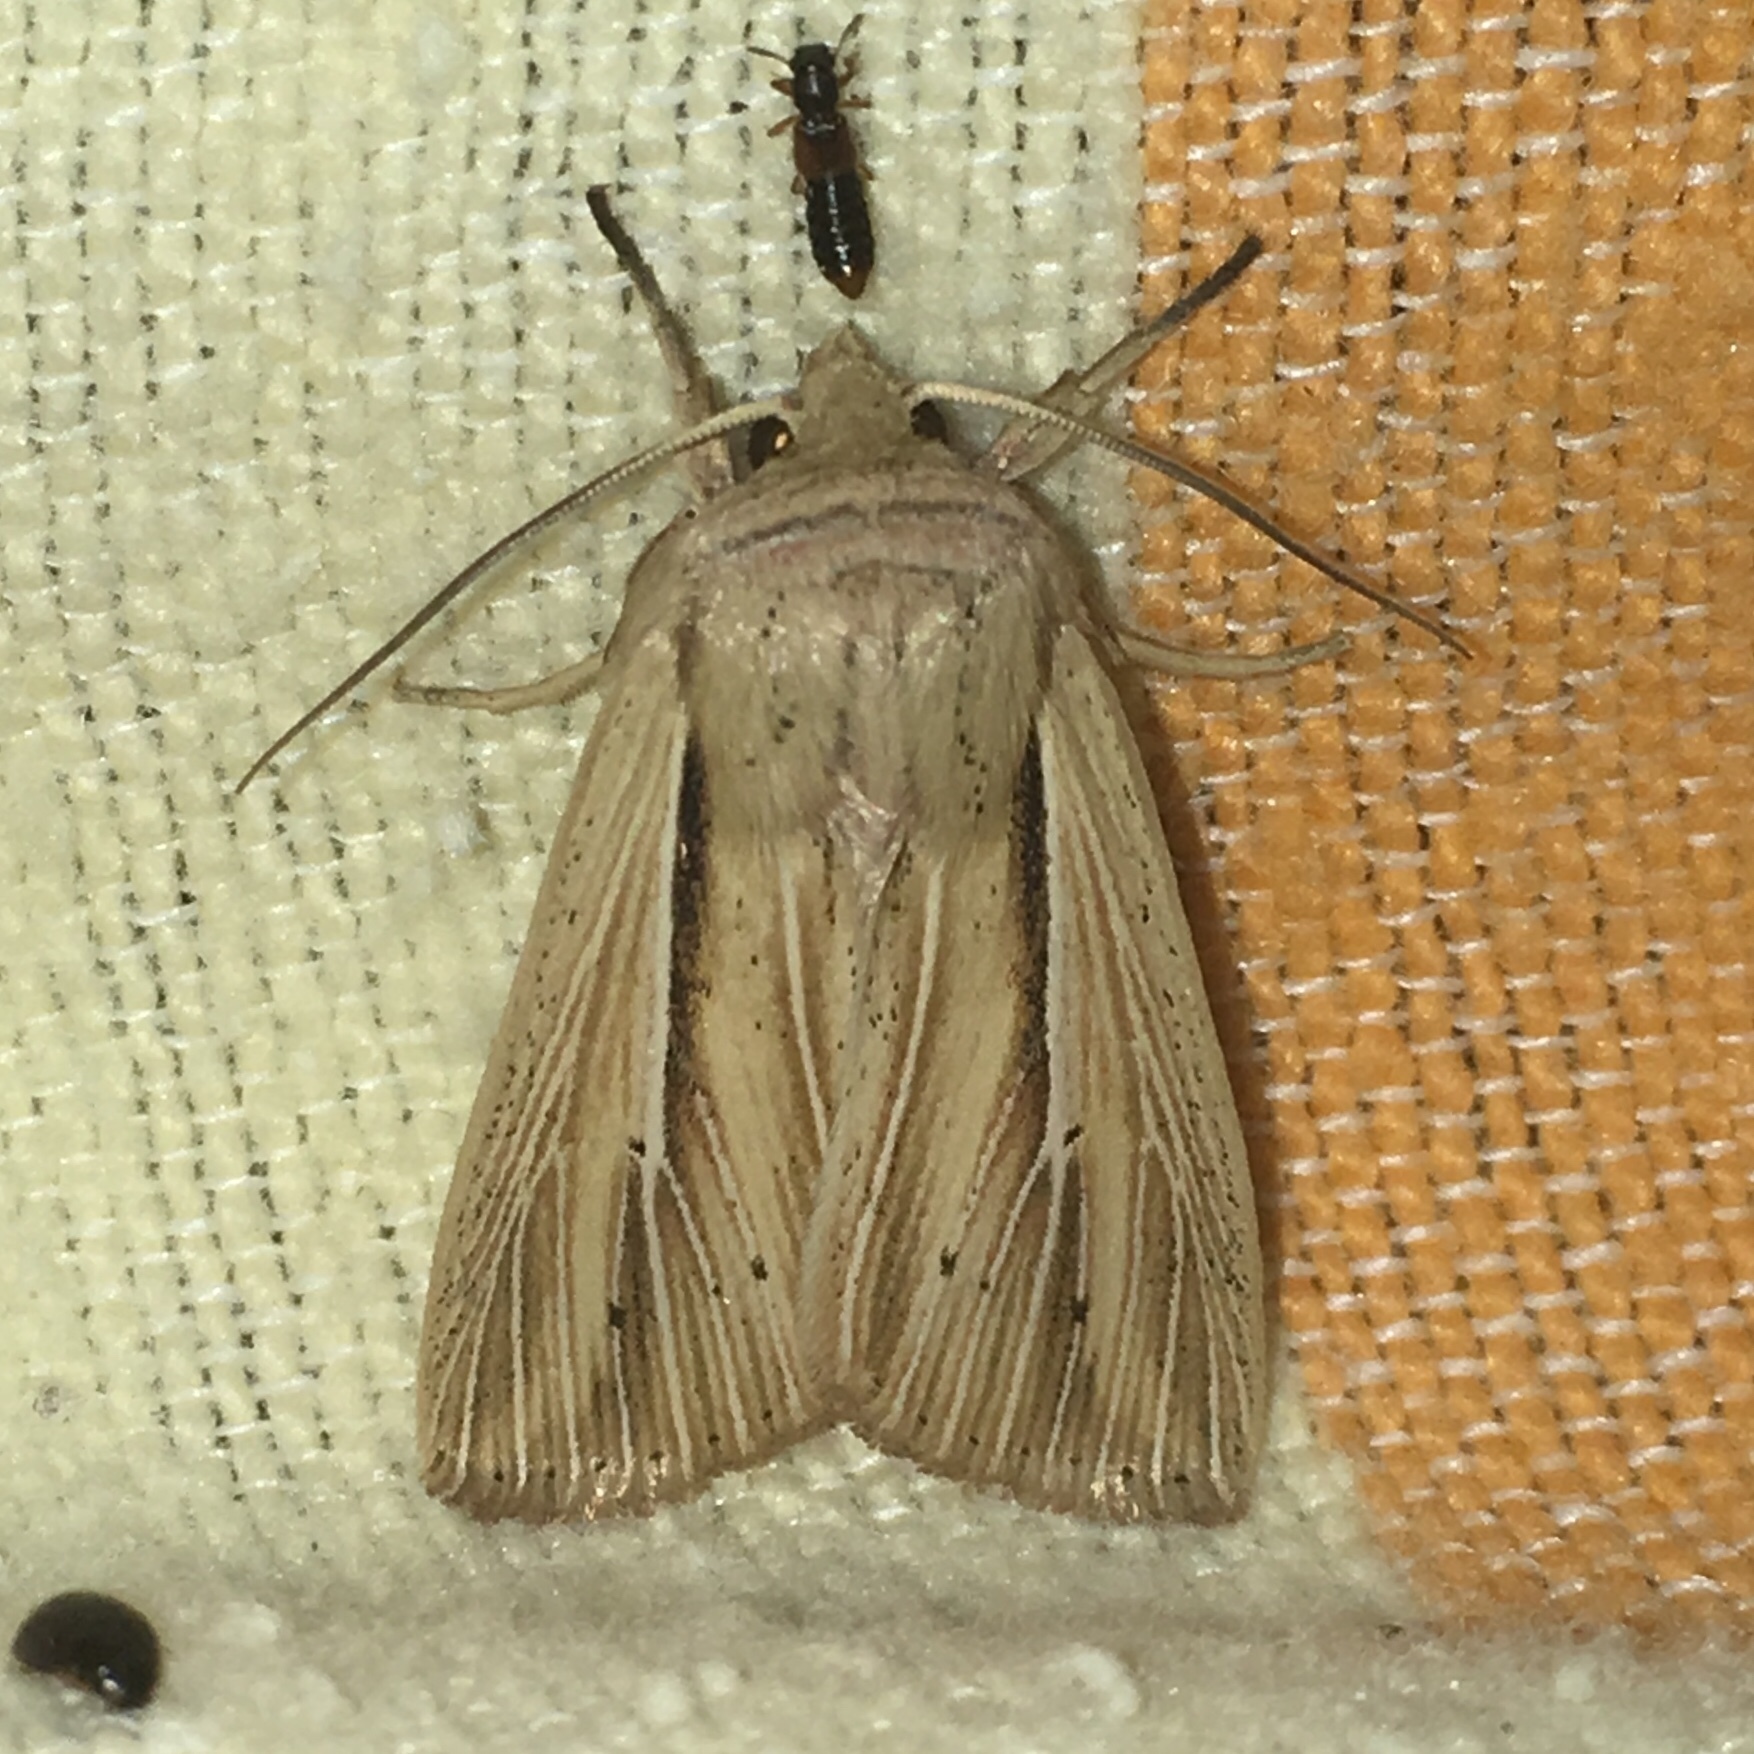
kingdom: Animalia
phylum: Arthropoda
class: Insecta
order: Lepidoptera
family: Noctuidae
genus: Leucania
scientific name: Leucania multilinea
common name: Many-lined wainscot
